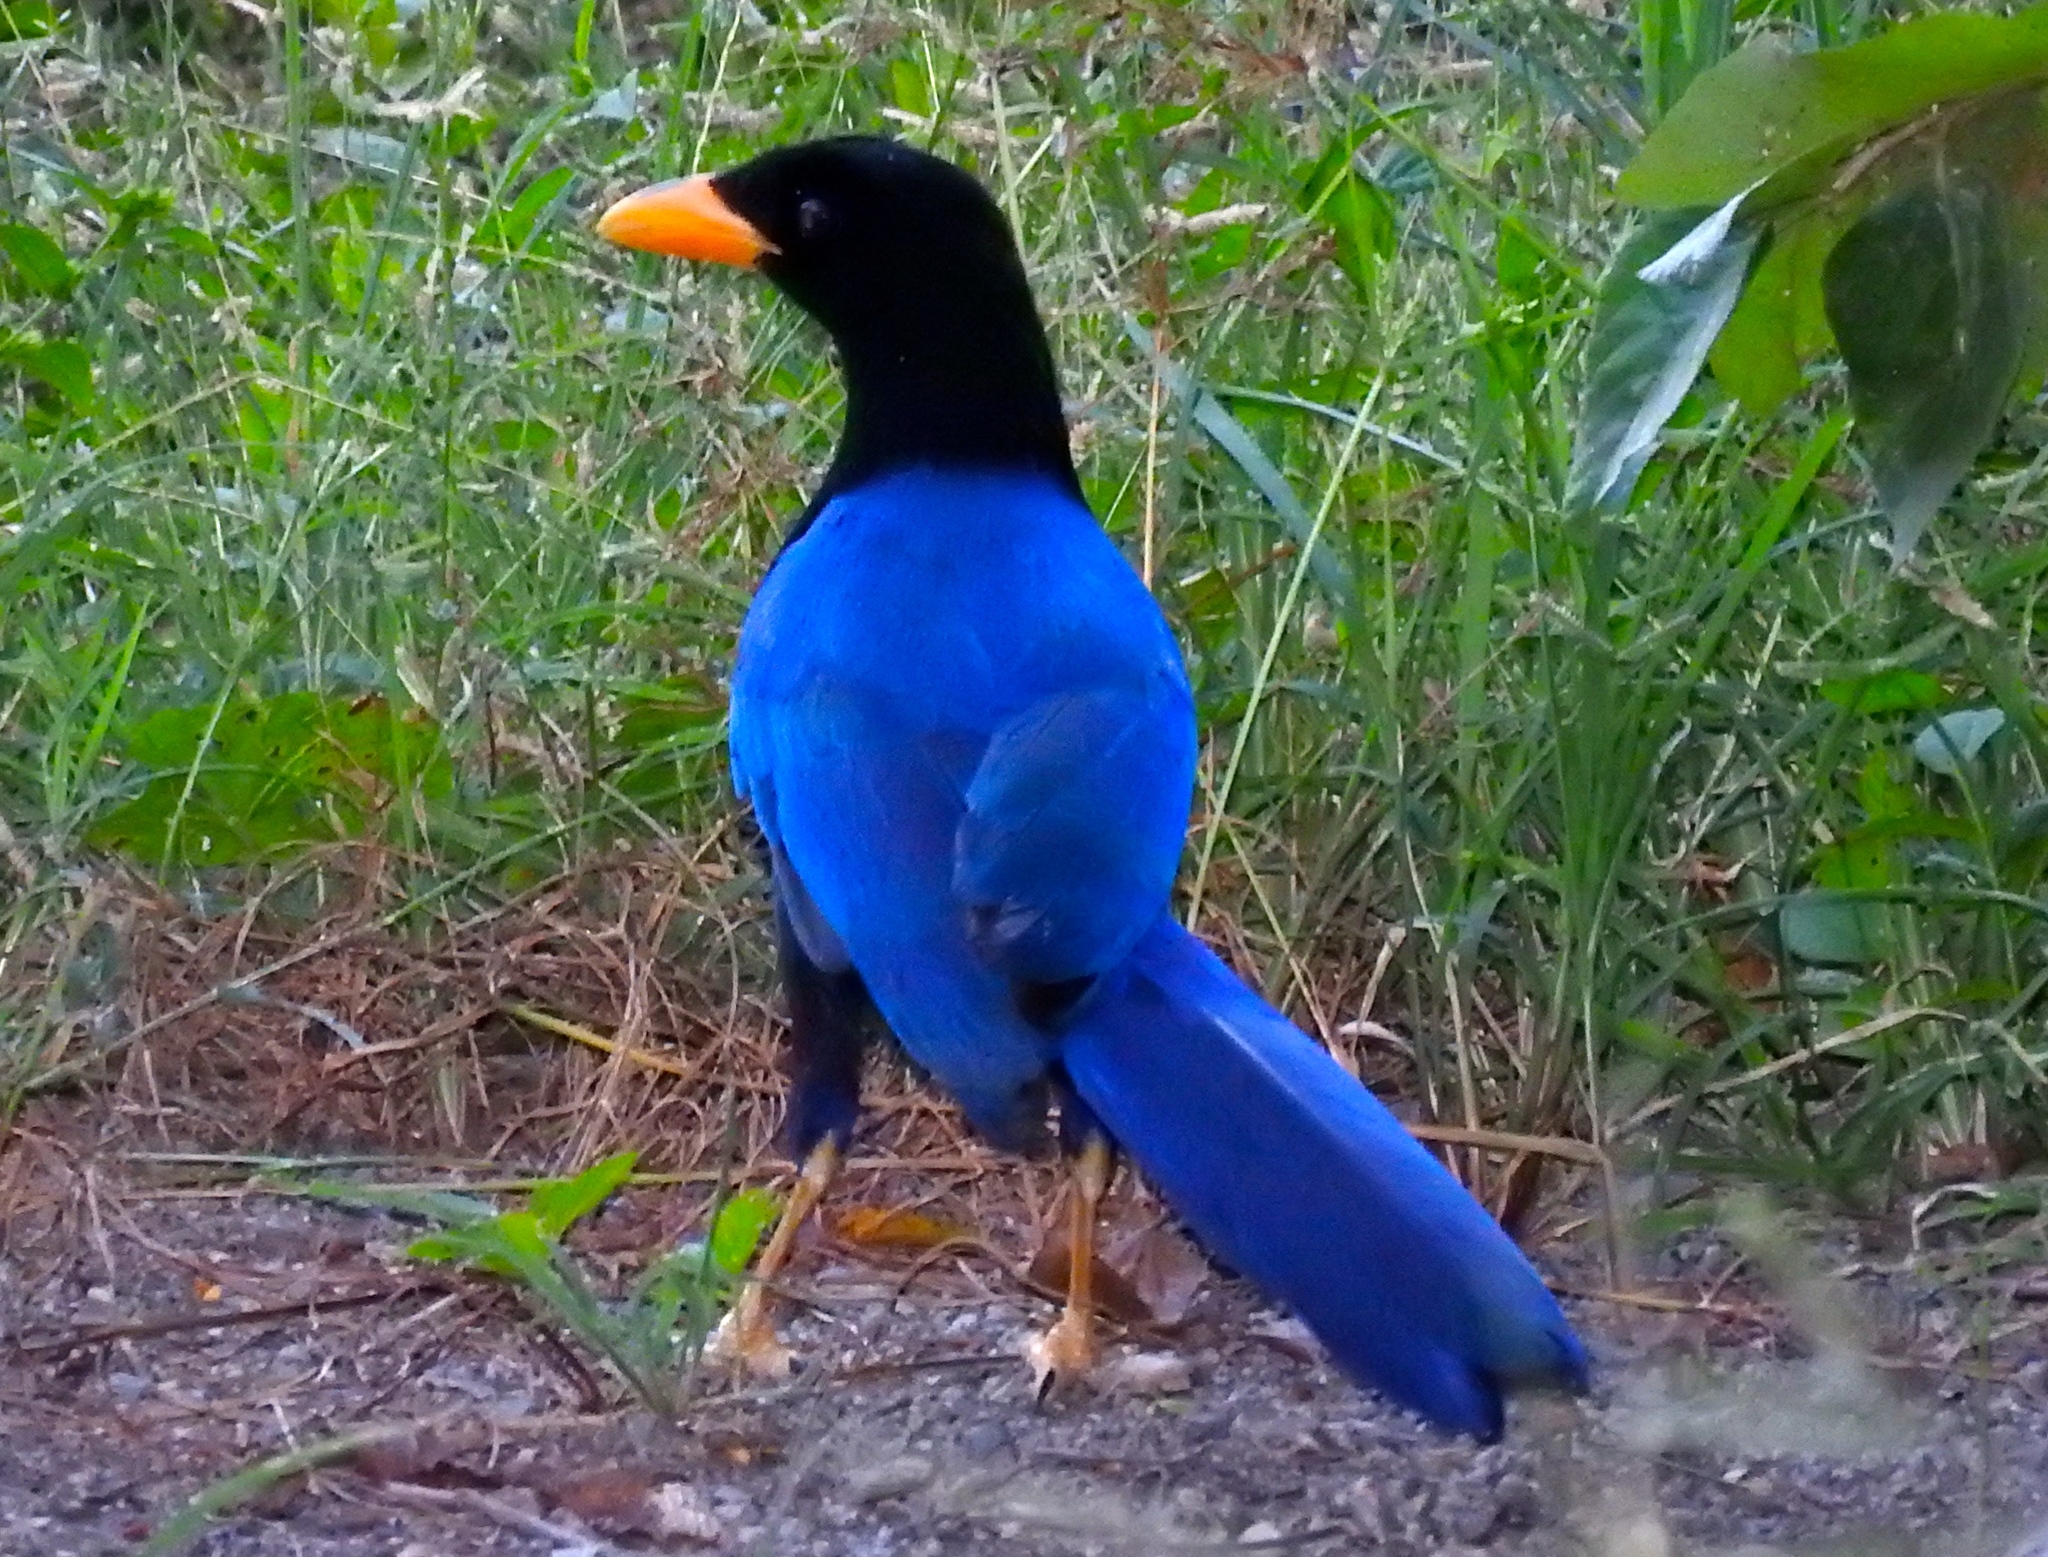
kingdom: Animalia
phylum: Chordata
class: Aves
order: Passeriformes
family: Corvidae
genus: Cyanocorax
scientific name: Cyanocorax beecheii
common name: Purplish-backed jay
